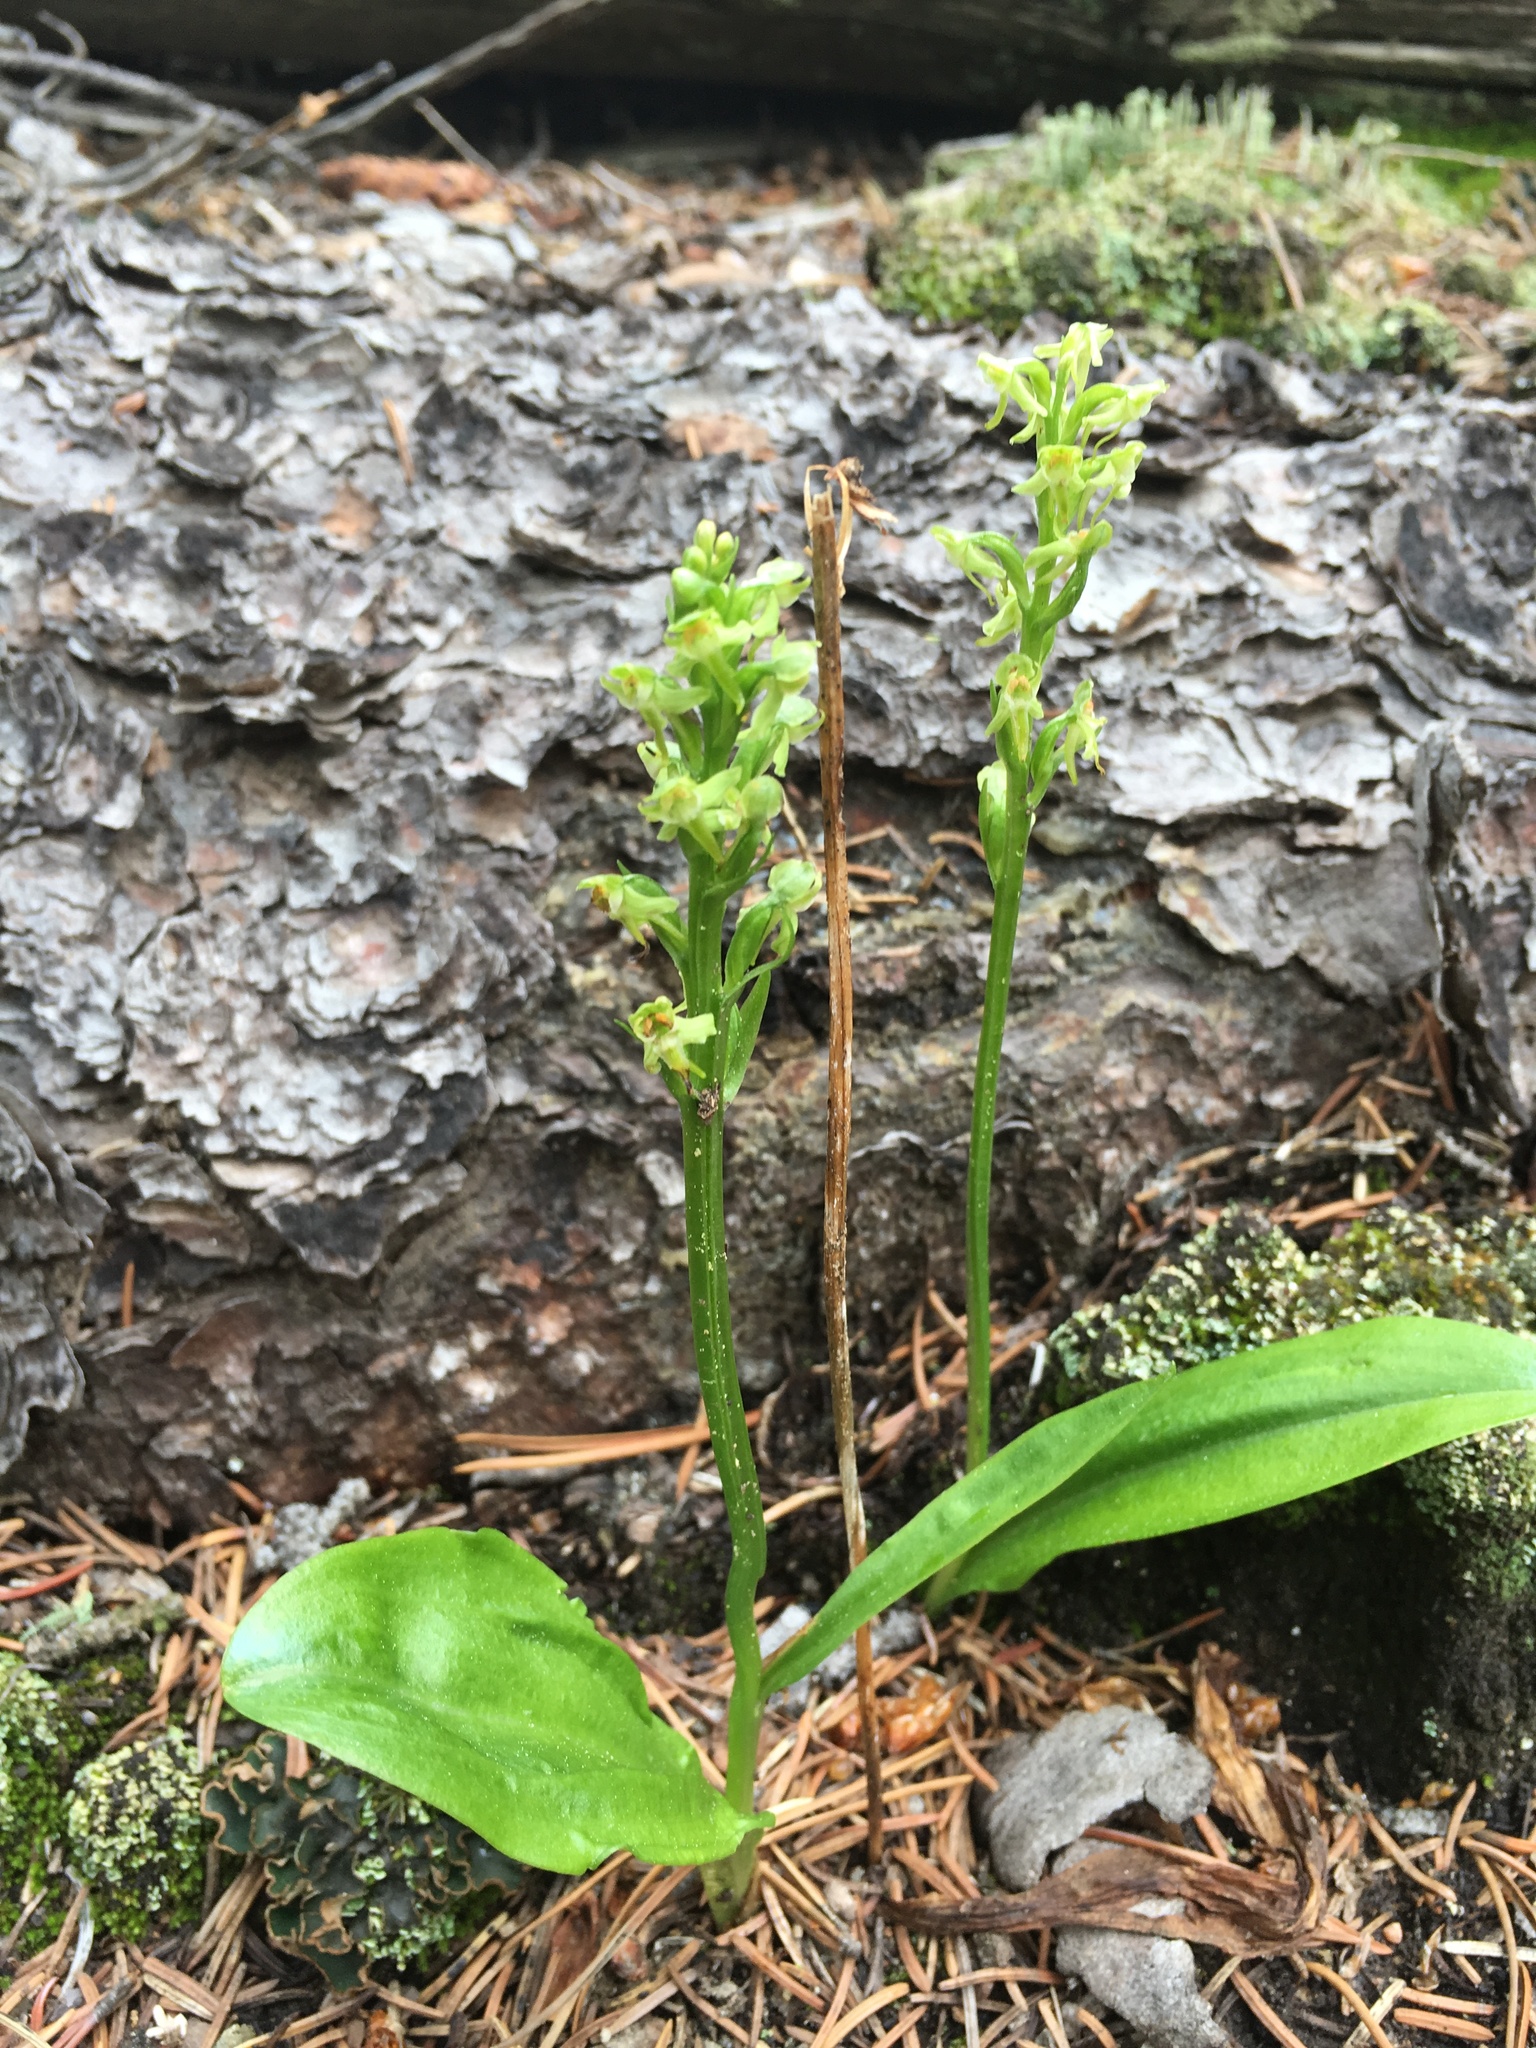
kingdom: Plantae
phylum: Tracheophyta
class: Liliopsida
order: Asparagales
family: Orchidaceae
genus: Platanthera
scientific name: Platanthera obtusata
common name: Blunt bog orchid
